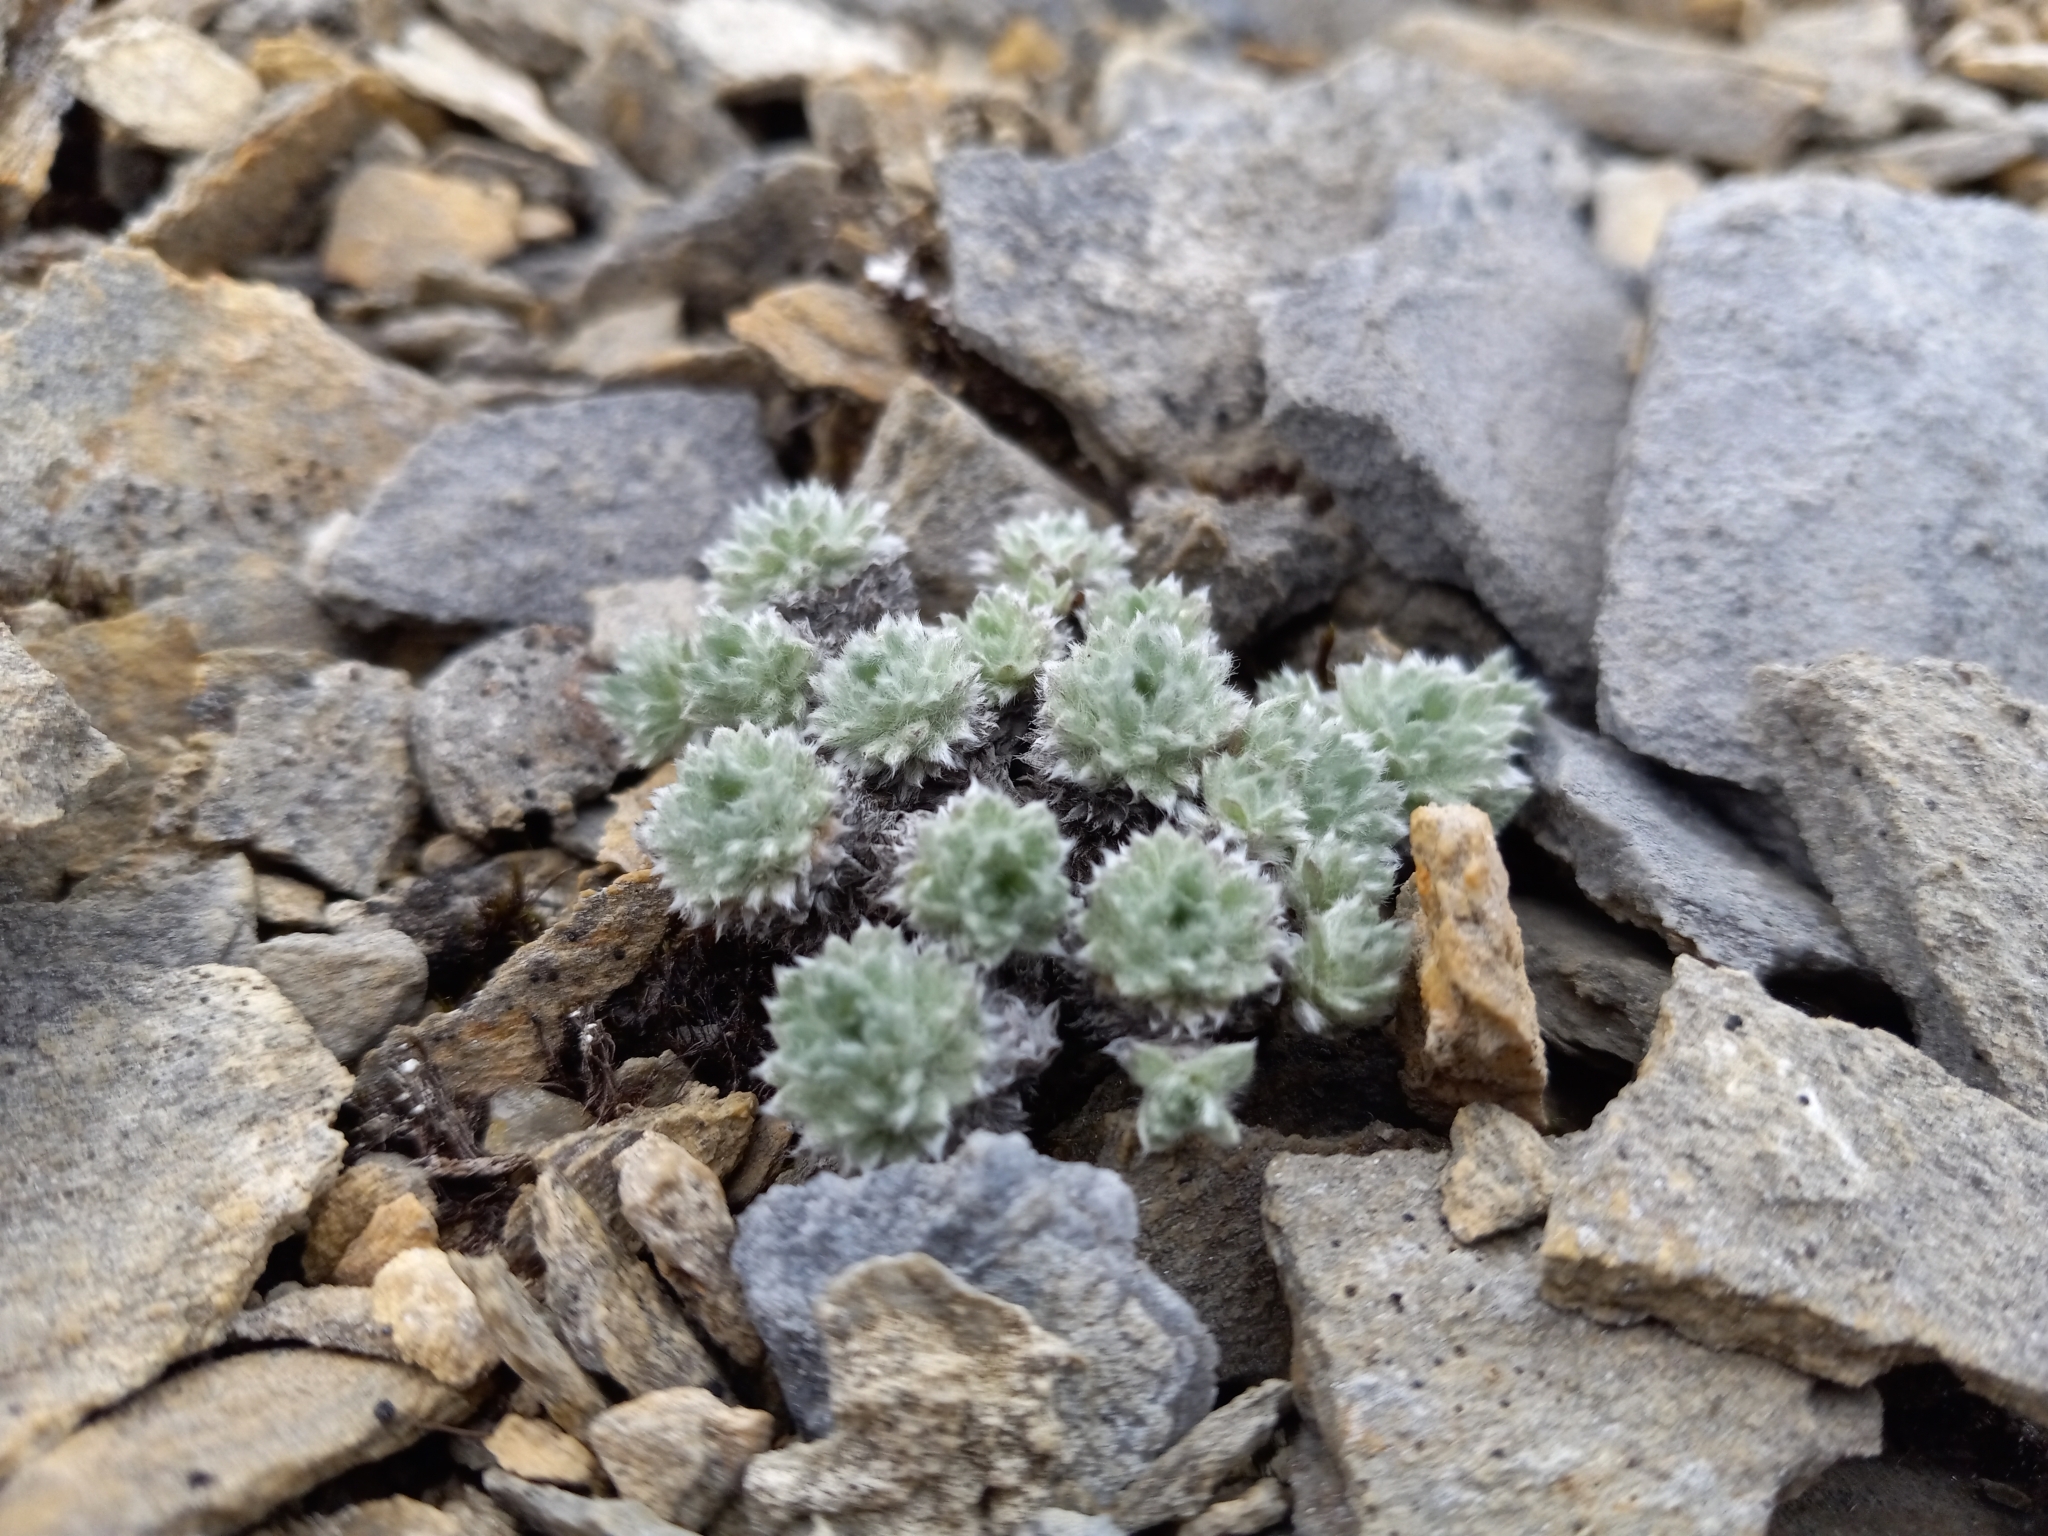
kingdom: Plantae
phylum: Tracheophyta
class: Magnoliopsida
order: Asterales
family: Asteraceae
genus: Artemisia
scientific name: Artemisia senjavinensis
